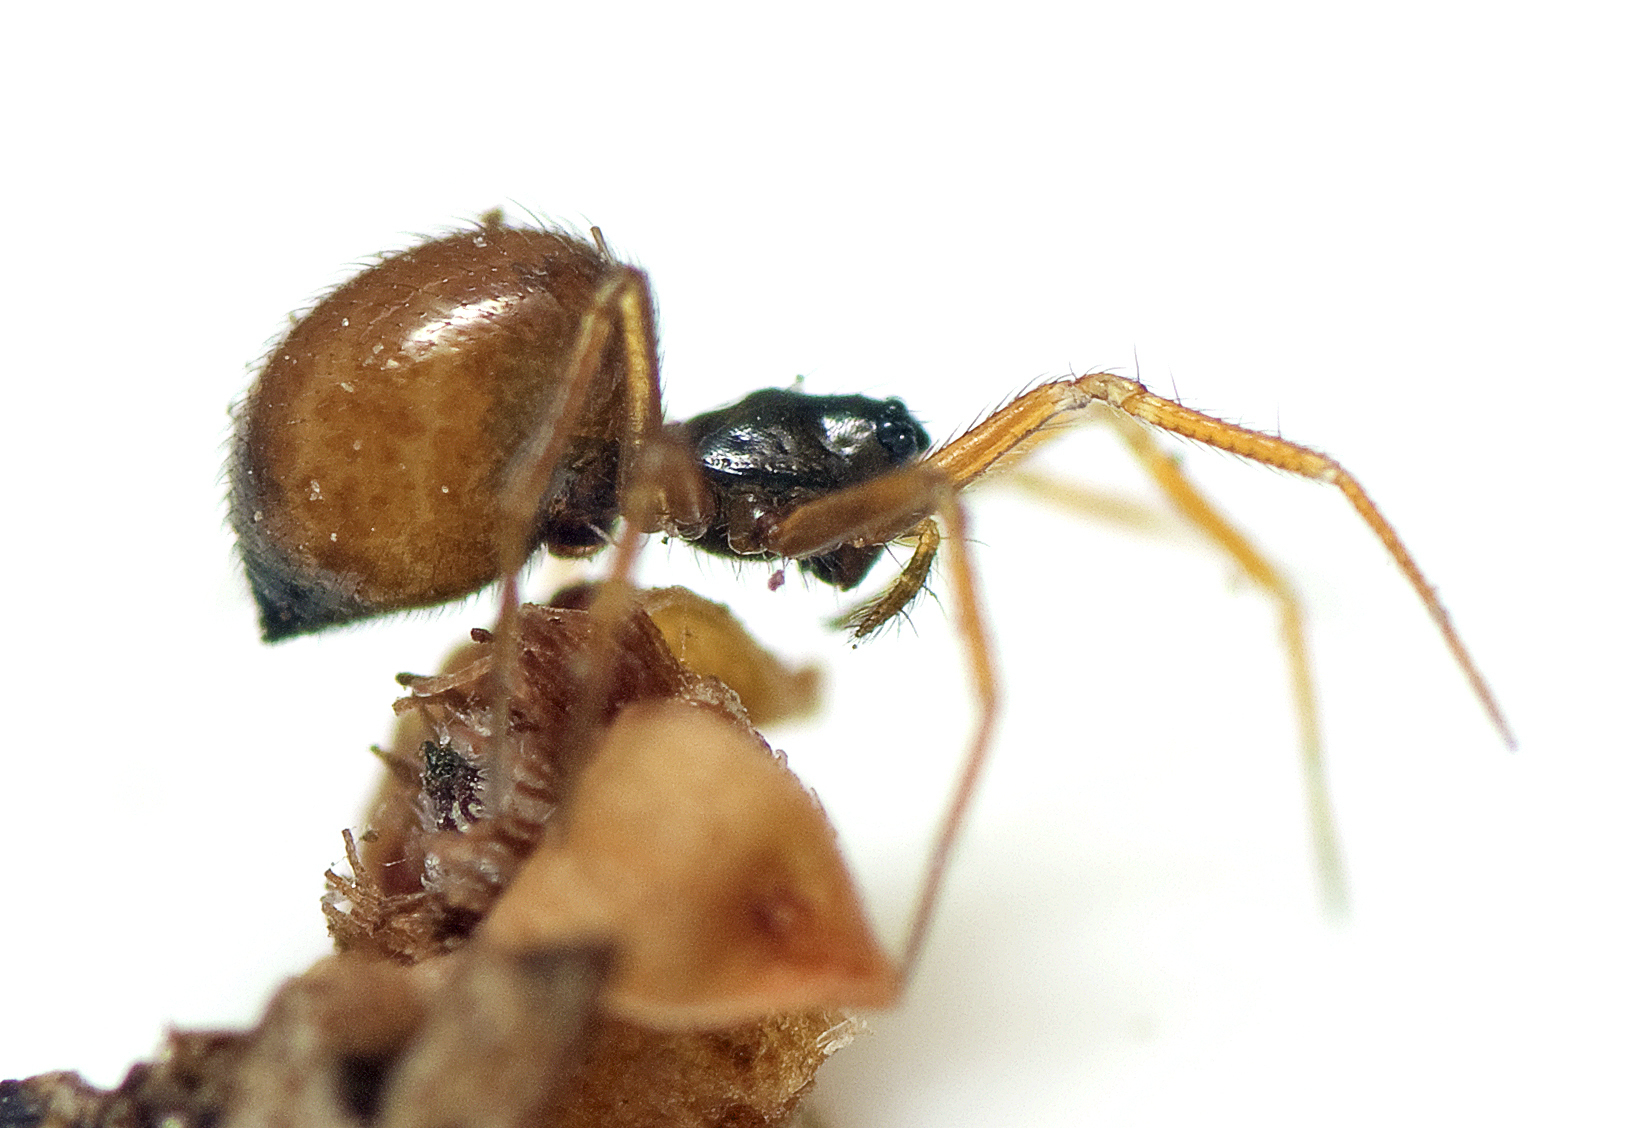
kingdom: Animalia
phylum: Arthropoda
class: Arachnida
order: Araneae
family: Linyphiidae
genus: Ostearius
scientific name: Ostearius melanopygius
